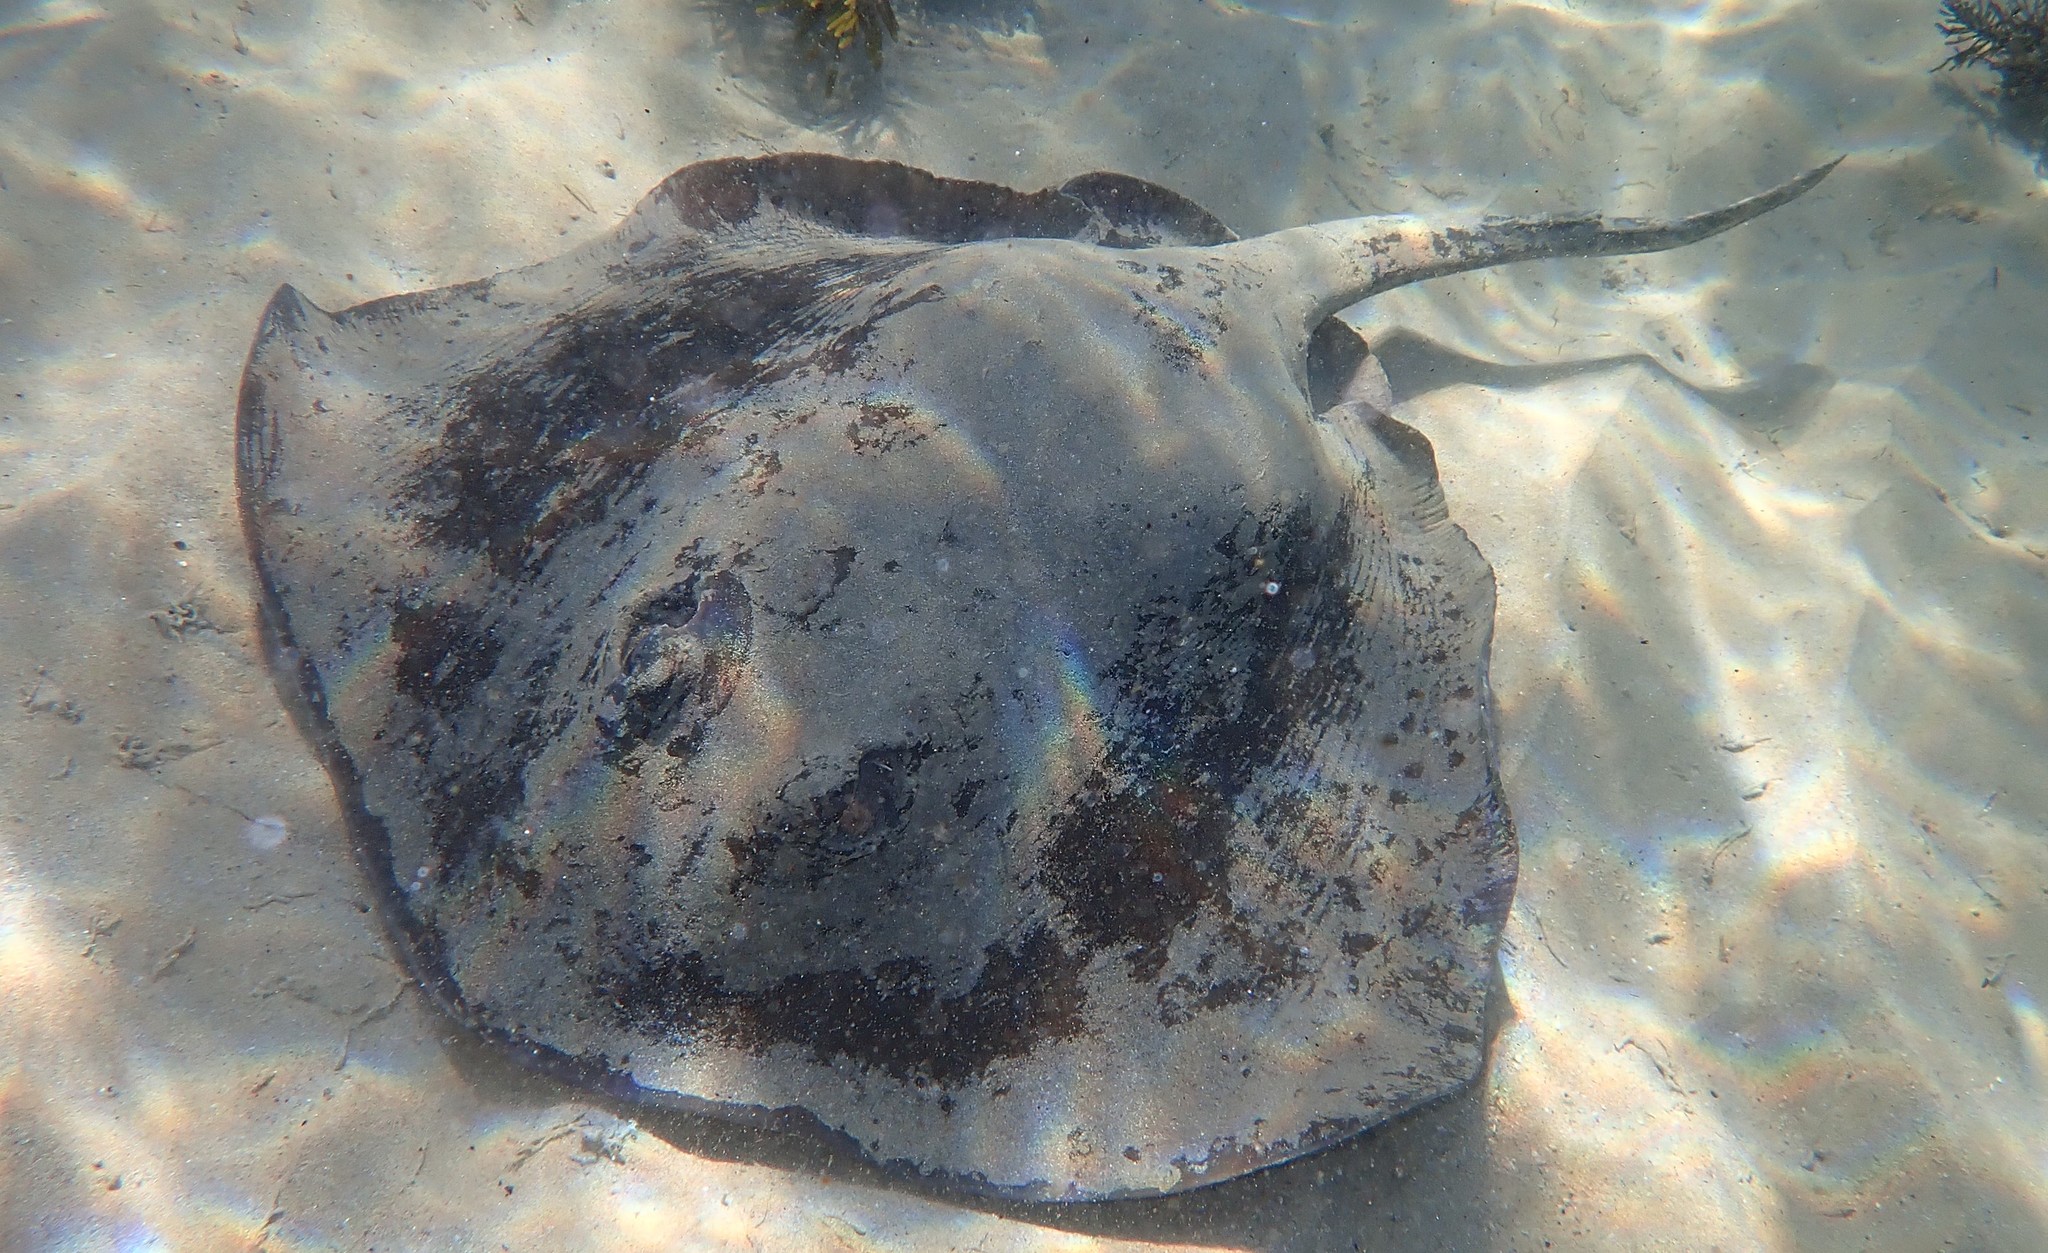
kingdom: Animalia
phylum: Chordata
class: Elasmobranchii
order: Myliobatiformes
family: Dasyatidae
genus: Bathytoshia
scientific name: Bathytoshia brevicaudata
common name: Short-tail stingray
